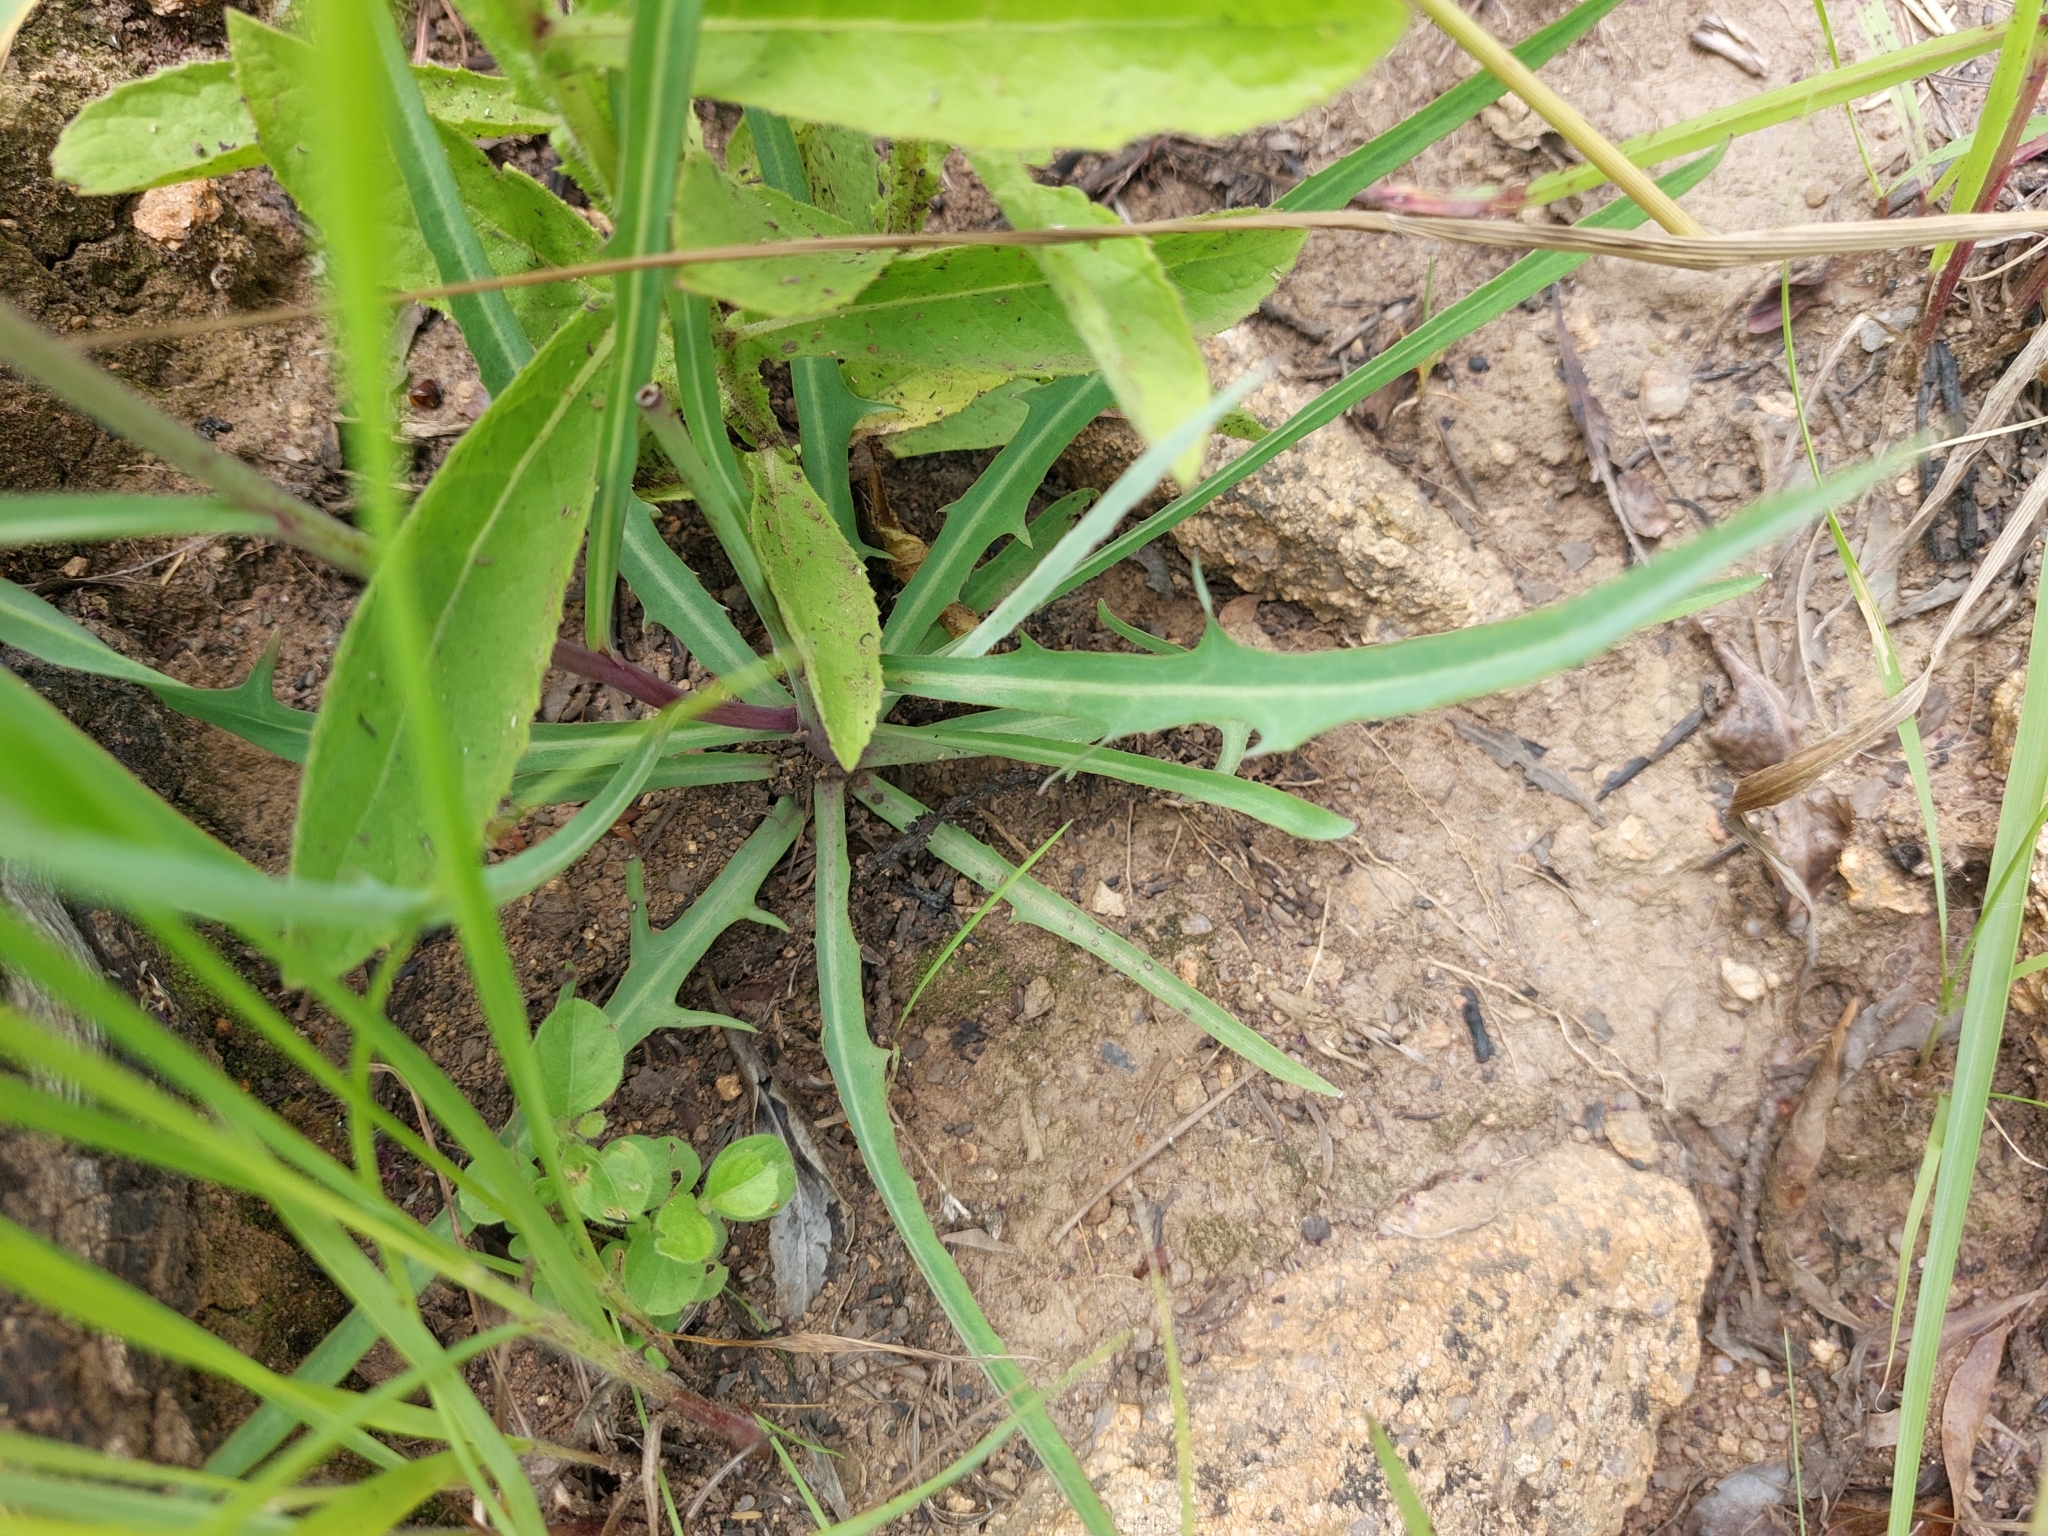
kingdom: Plantae
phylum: Tracheophyta
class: Magnoliopsida
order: Asterales
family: Asteraceae
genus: Sonchus
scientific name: Sonchus dregeanus
